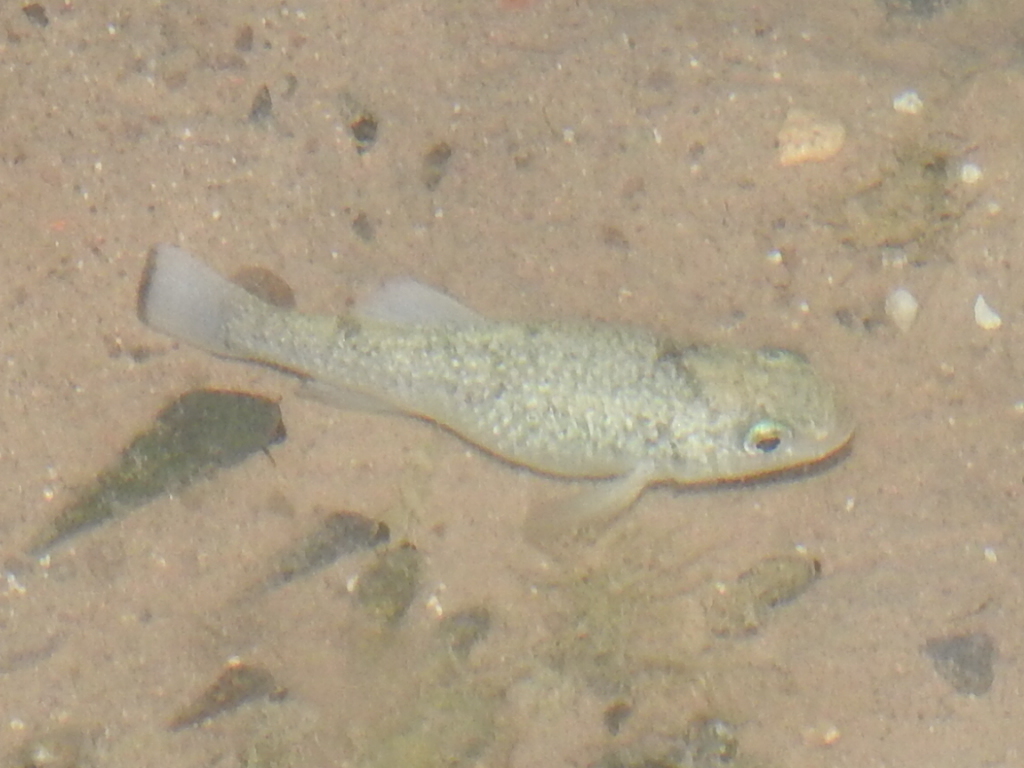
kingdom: Animalia
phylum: Chordata
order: Cyprinodontiformes
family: Cyprinodontidae
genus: Cyprinodon
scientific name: Cyprinodon elegans
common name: Comanche springs pupfish
